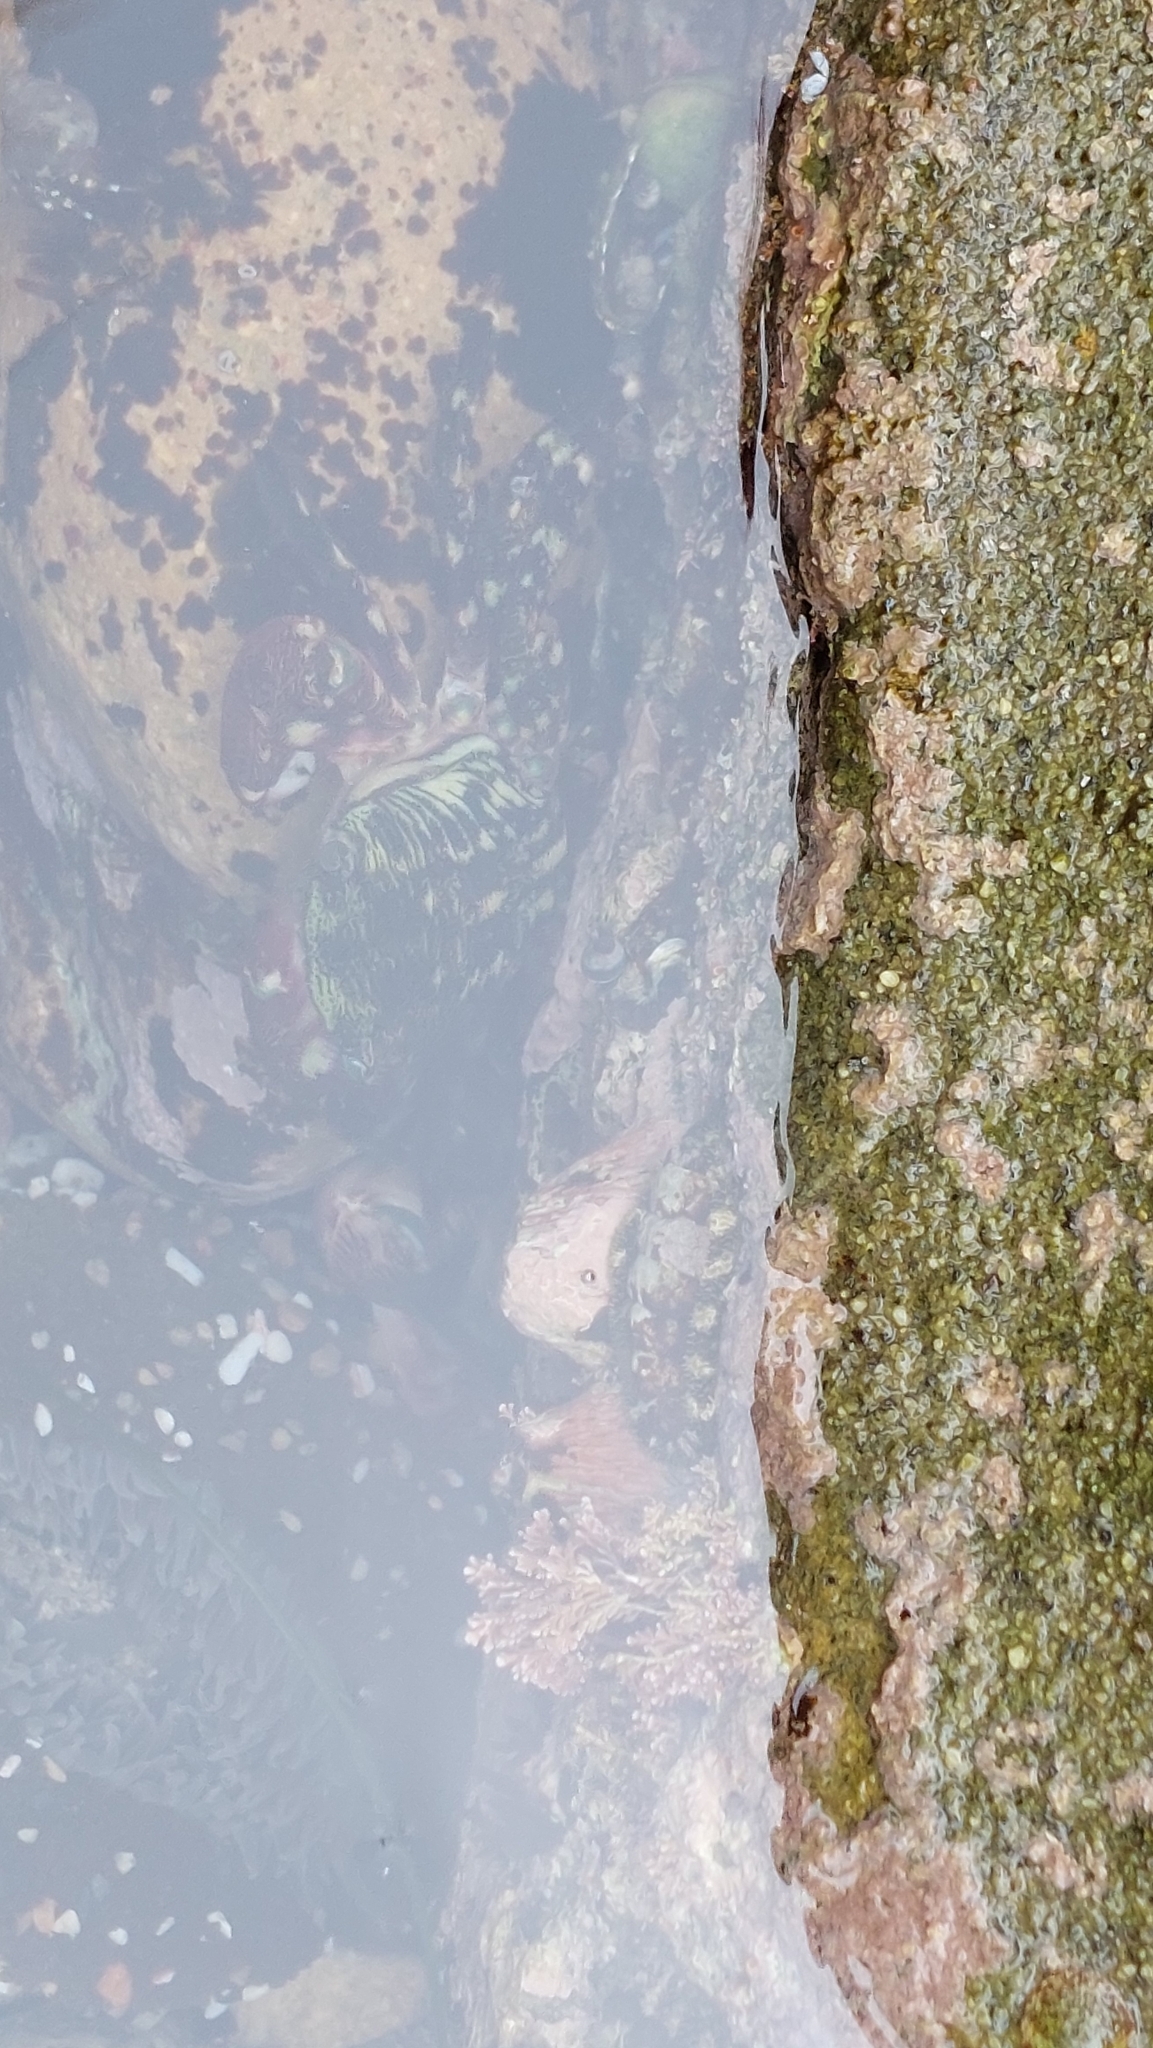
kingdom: Animalia
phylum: Arthropoda
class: Malacostraca
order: Decapoda
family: Grapsidae
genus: Pachygrapsus
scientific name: Pachygrapsus crassipes
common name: Striped shore crab
